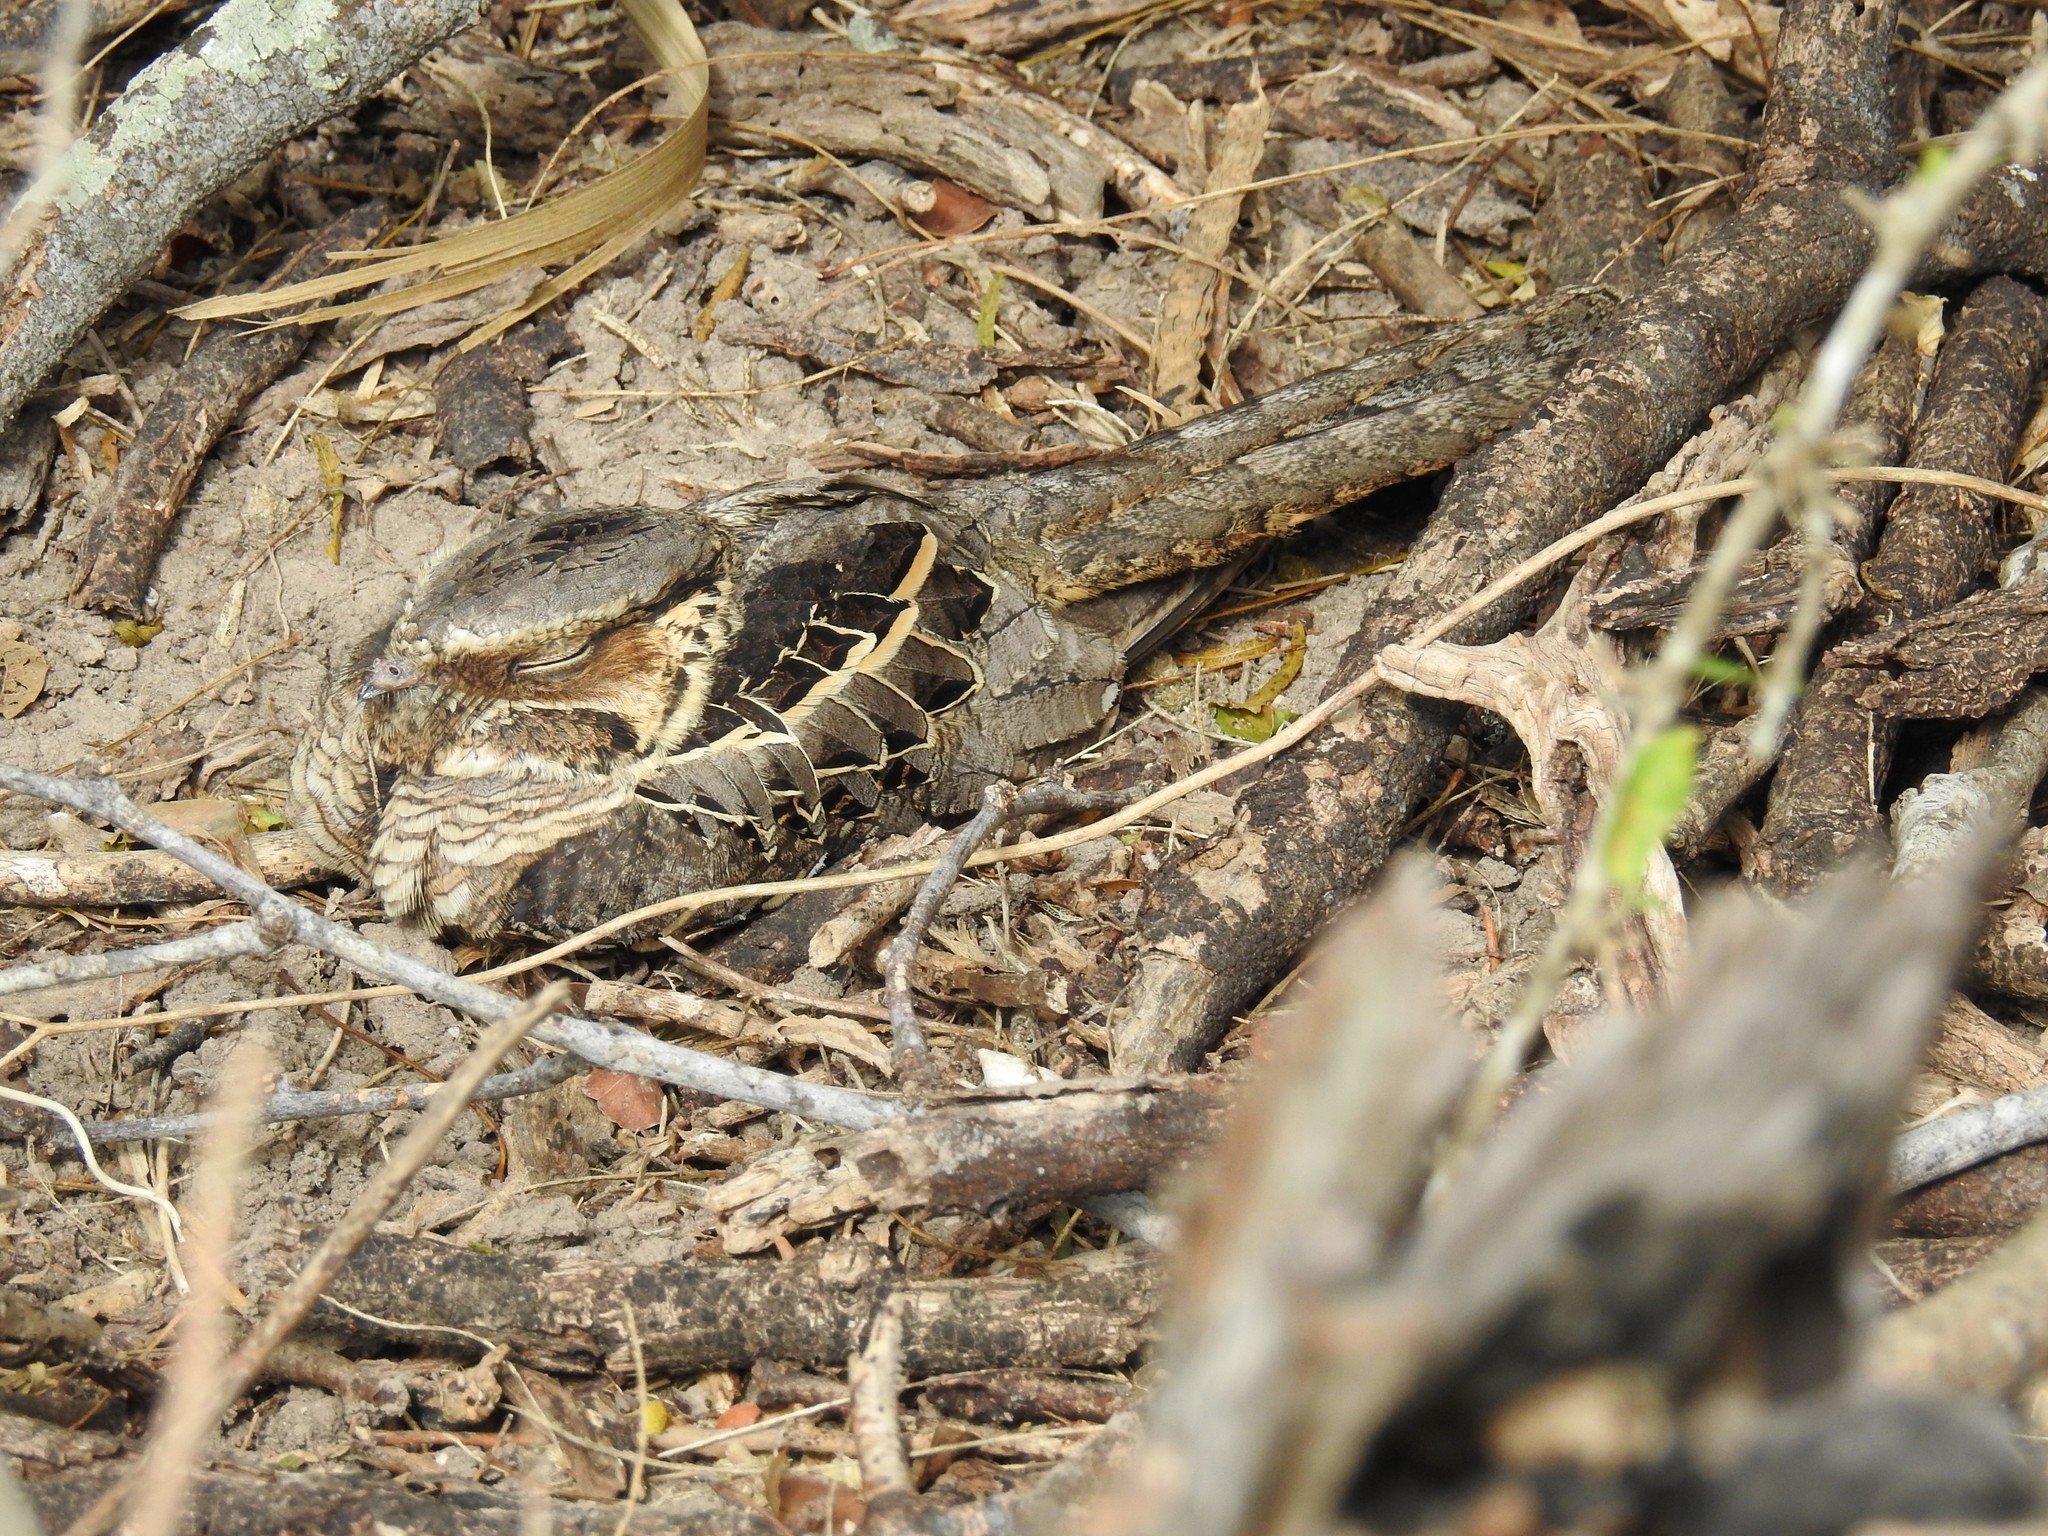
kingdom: Animalia
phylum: Chordata
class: Aves
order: Caprimulgiformes
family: Caprimulgidae
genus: Nyctidromus
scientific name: Nyctidromus albicollis
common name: Pauraque
